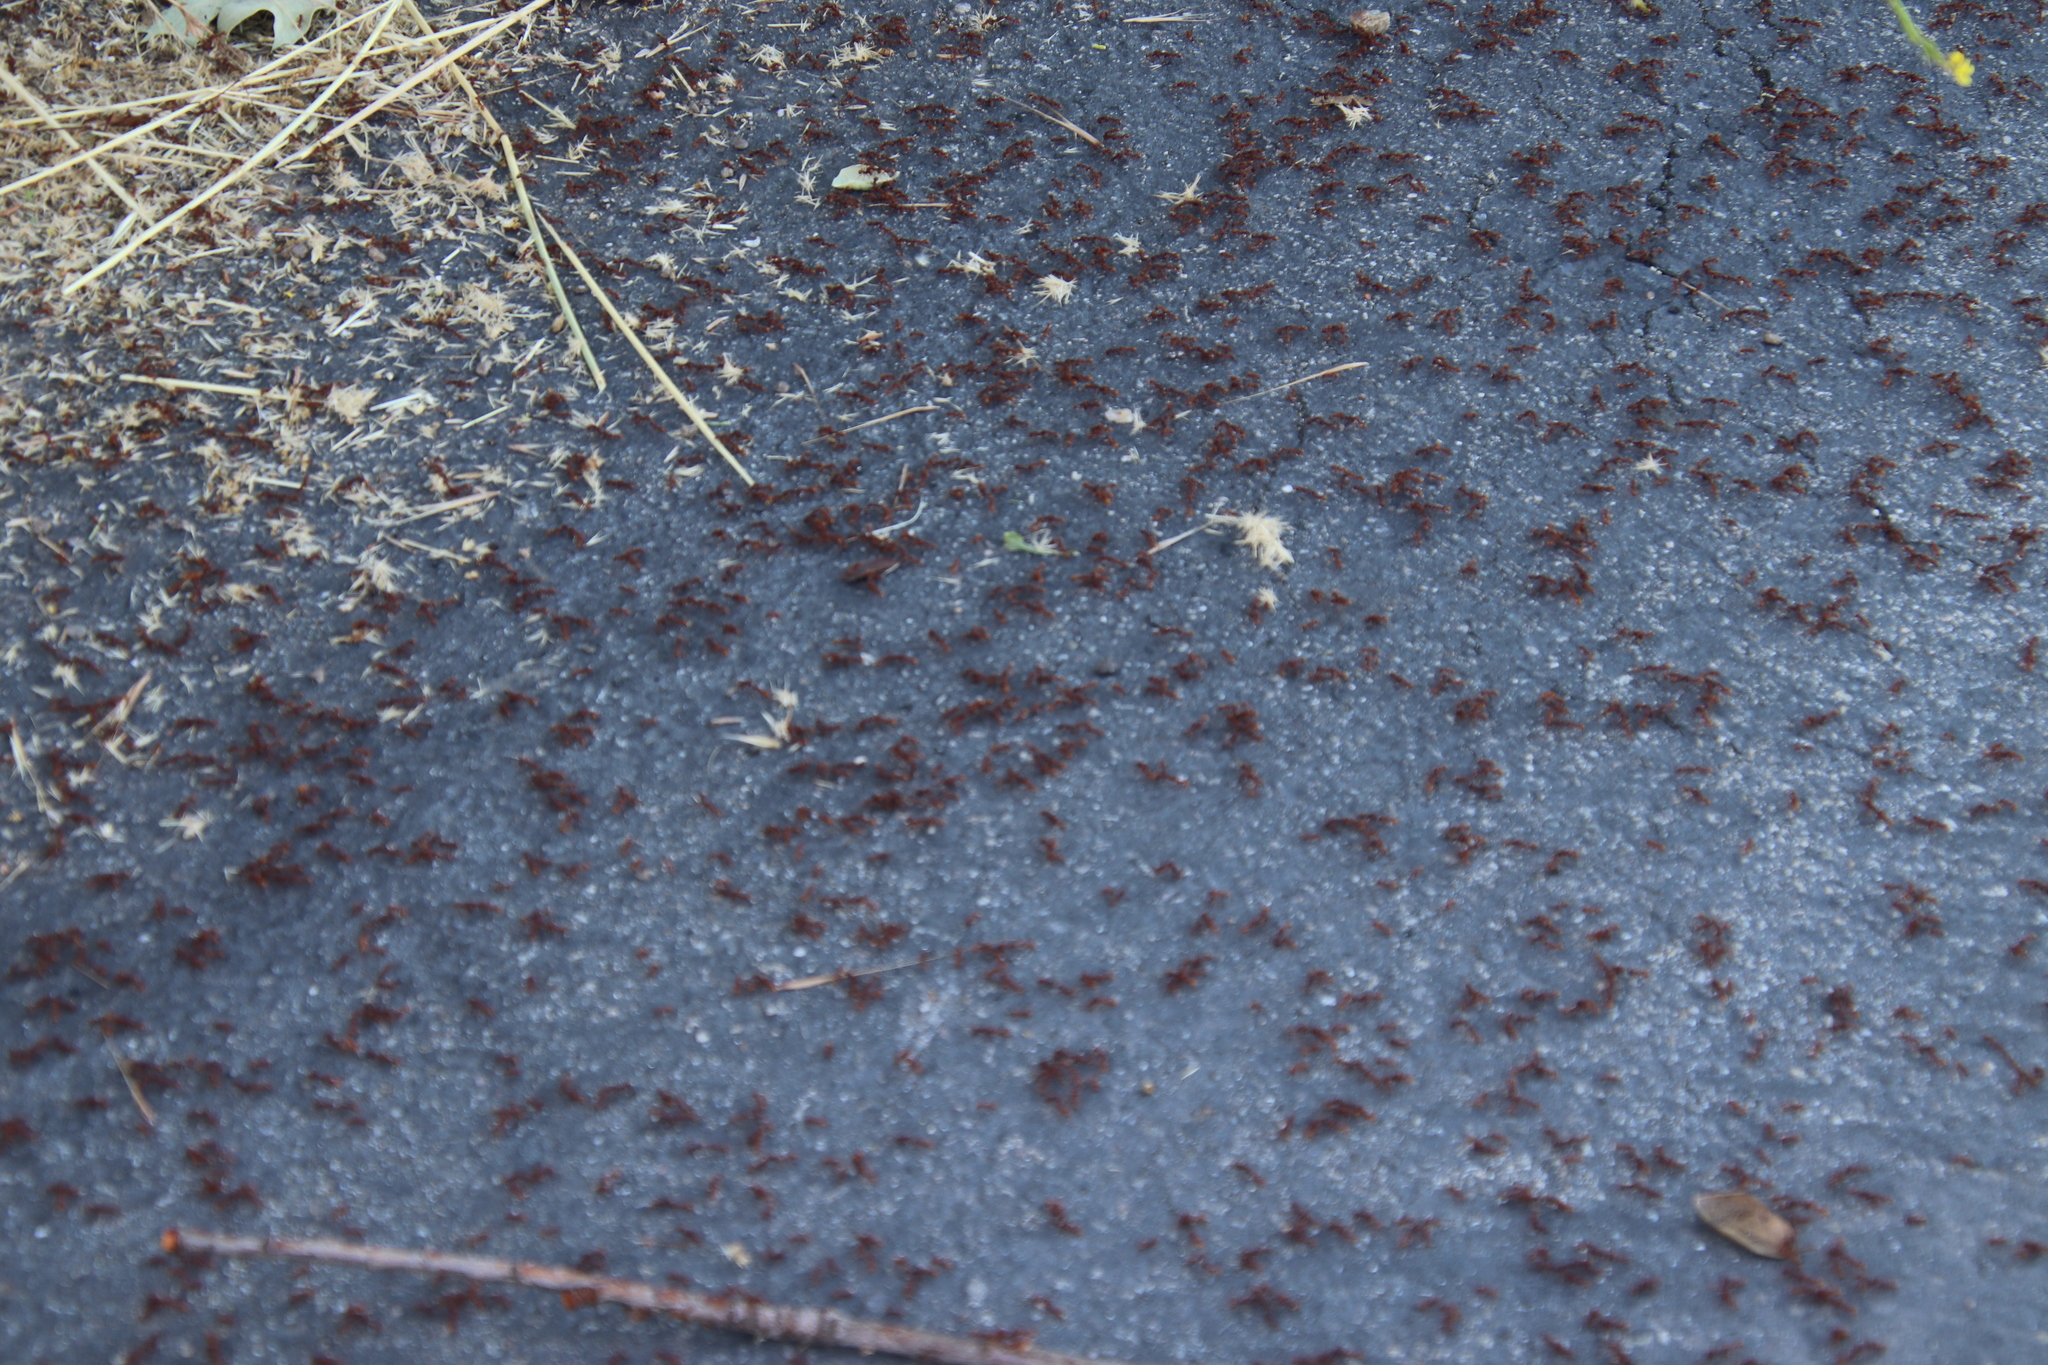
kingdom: Animalia
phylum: Arthropoda
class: Insecta
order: Hymenoptera
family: Formicidae
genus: Veromessor
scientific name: Veromessor andrei
